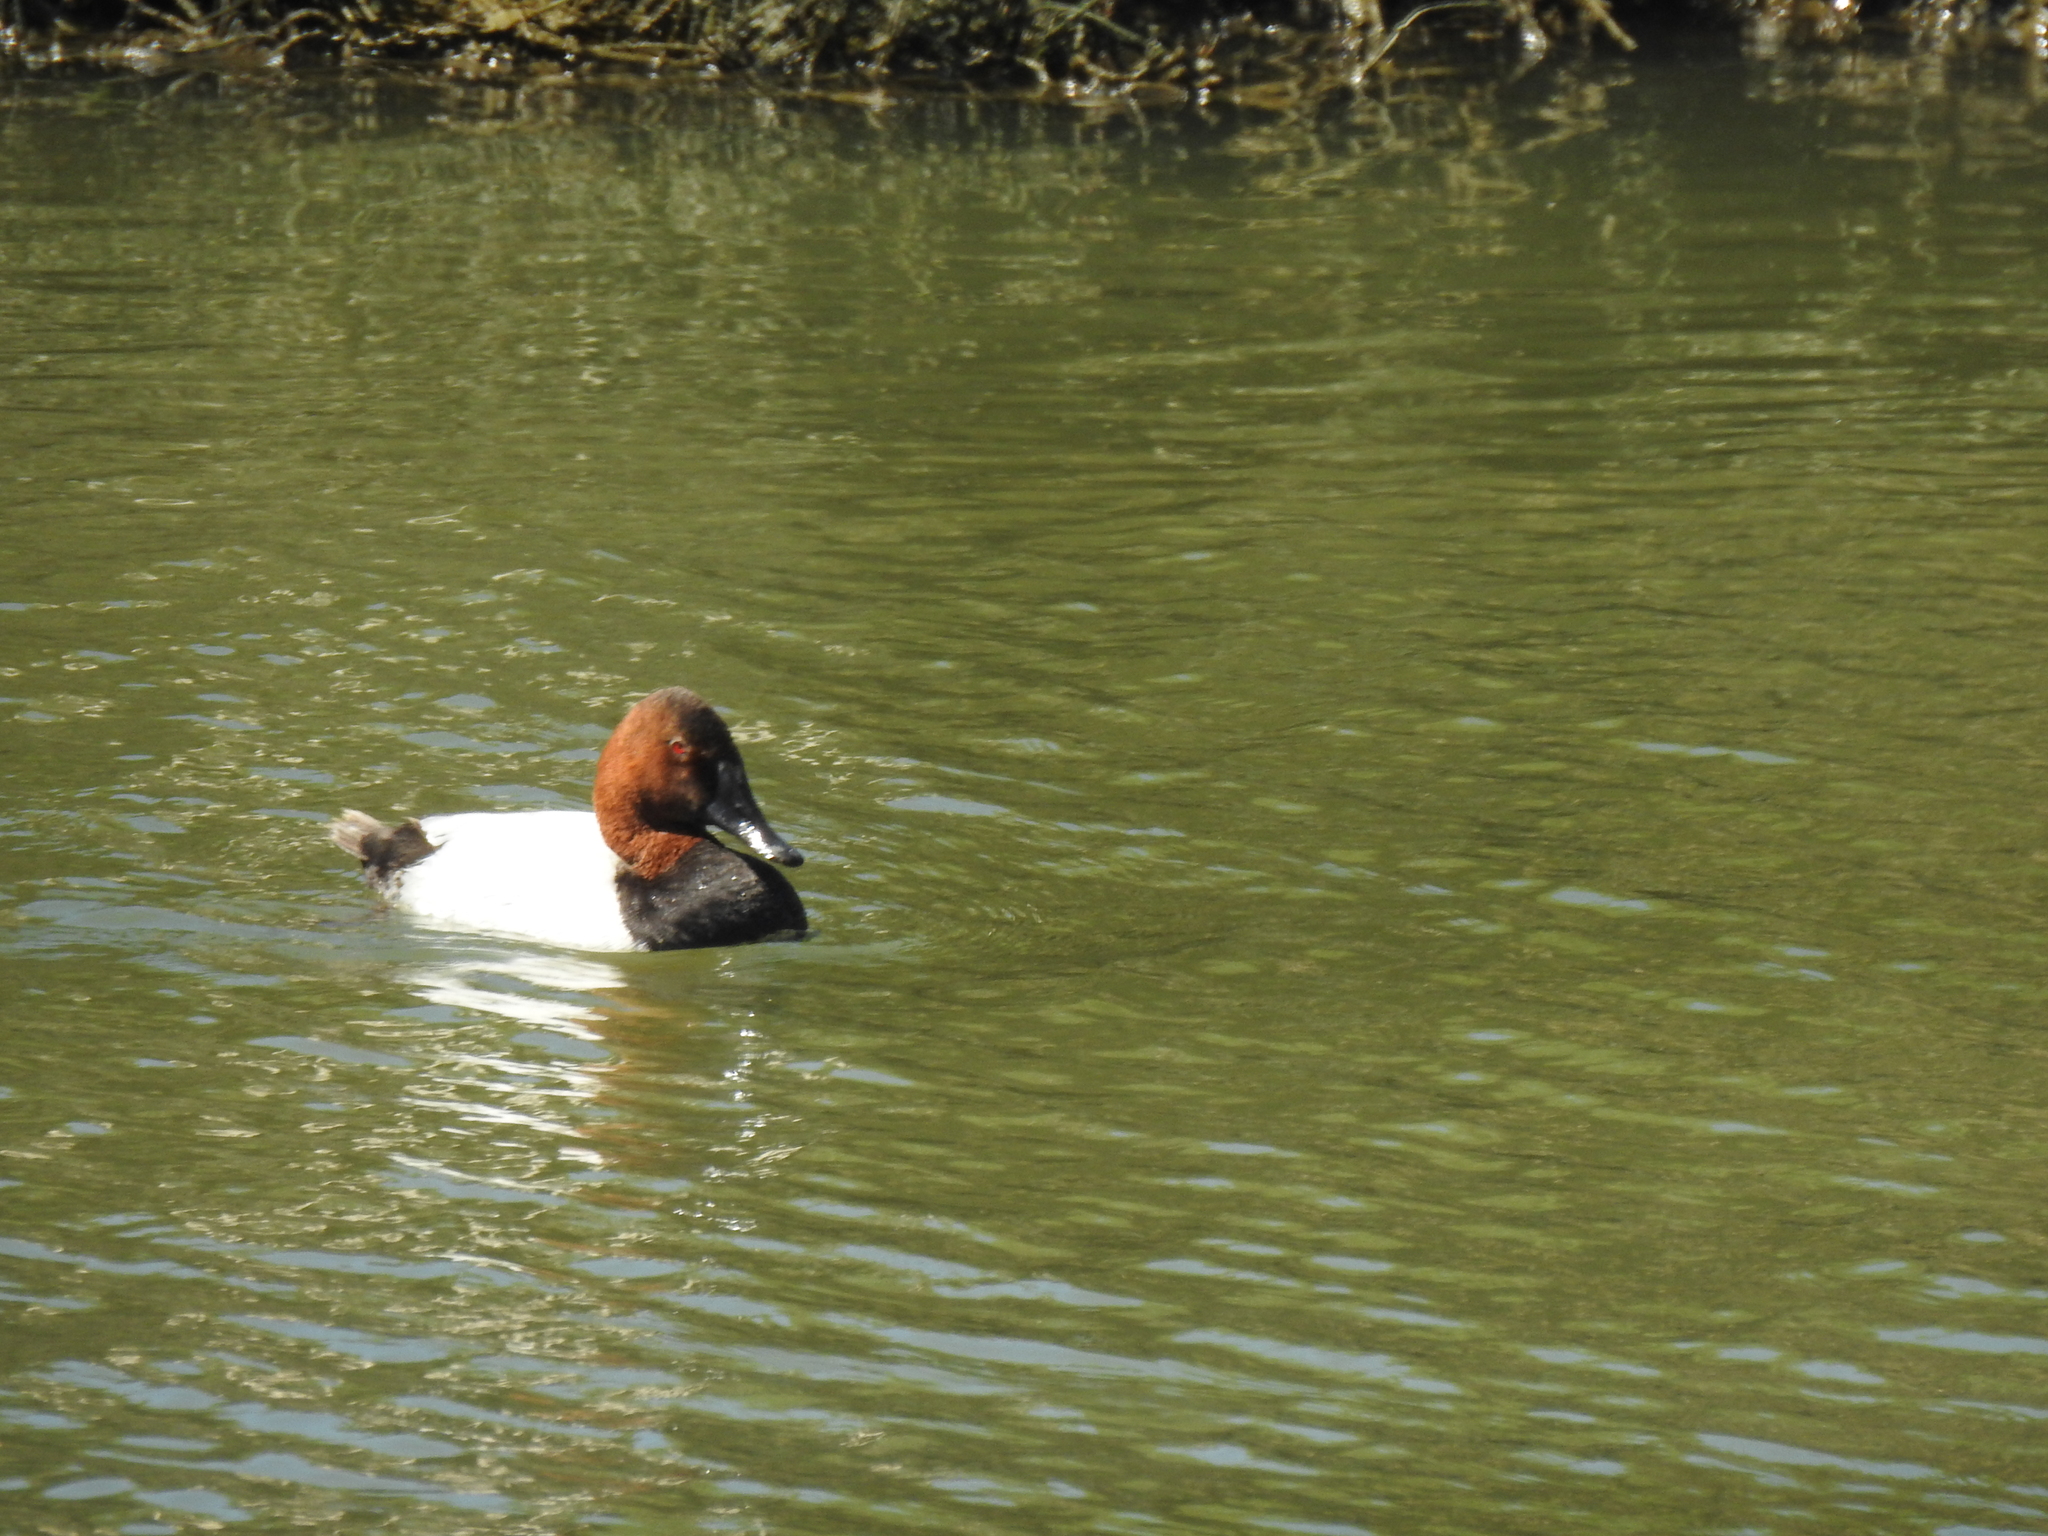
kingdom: Animalia
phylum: Chordata
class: Aves
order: Anseriformes
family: Anatidae
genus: Aythya
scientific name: Aythya valisineria
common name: Canvasback
